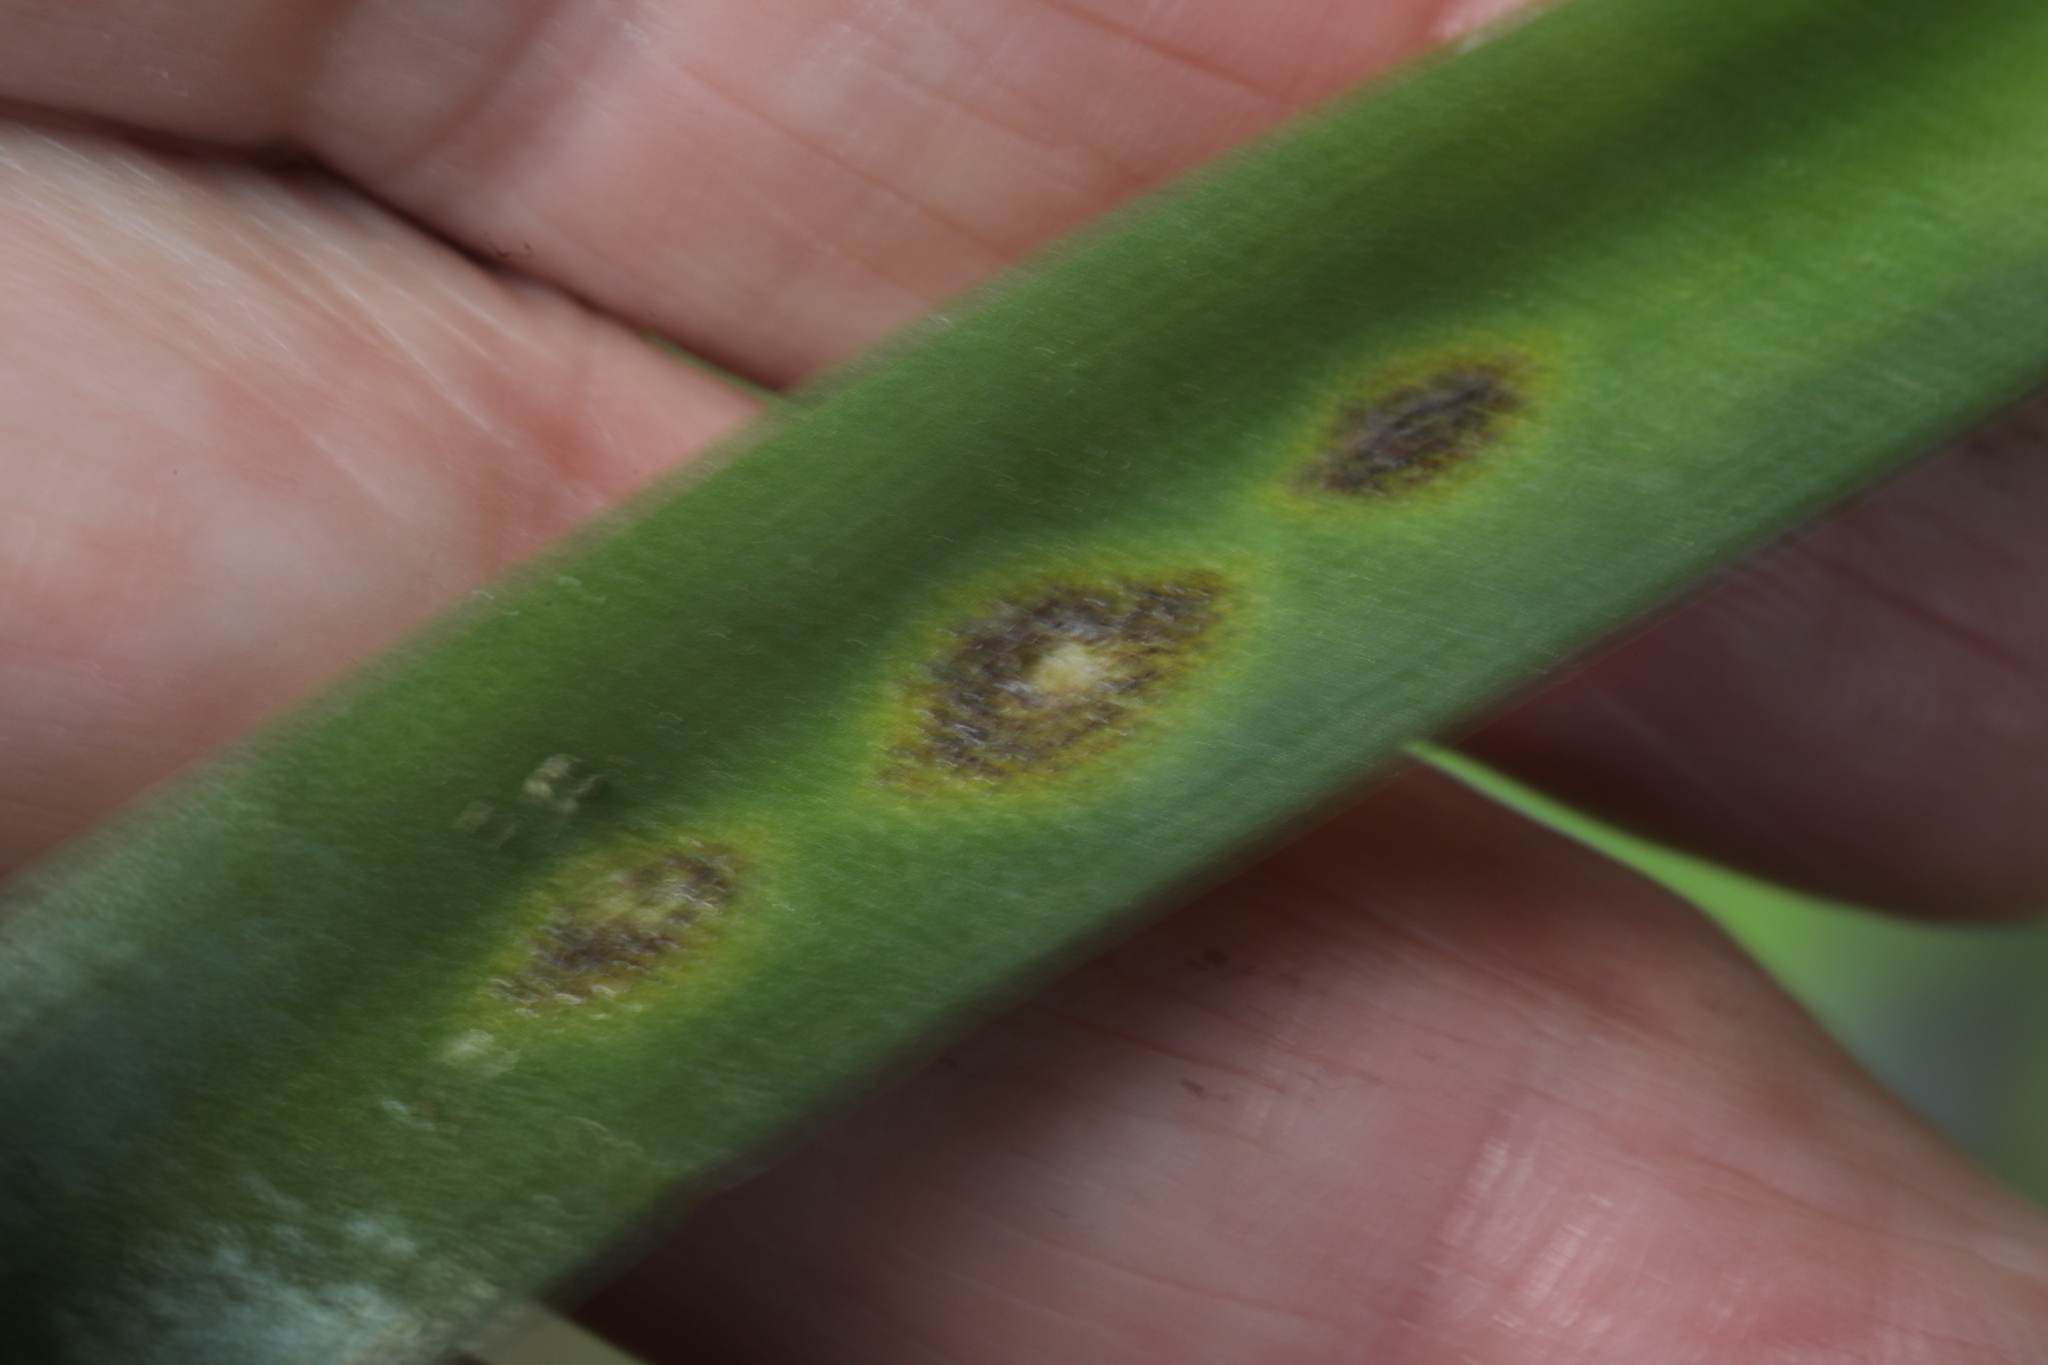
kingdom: Fungi
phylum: Basidiomycota
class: Pucciniomycetes
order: Pucciniales
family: Pucciniaceae
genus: Uromyces
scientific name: Uromyces hyacinthi
